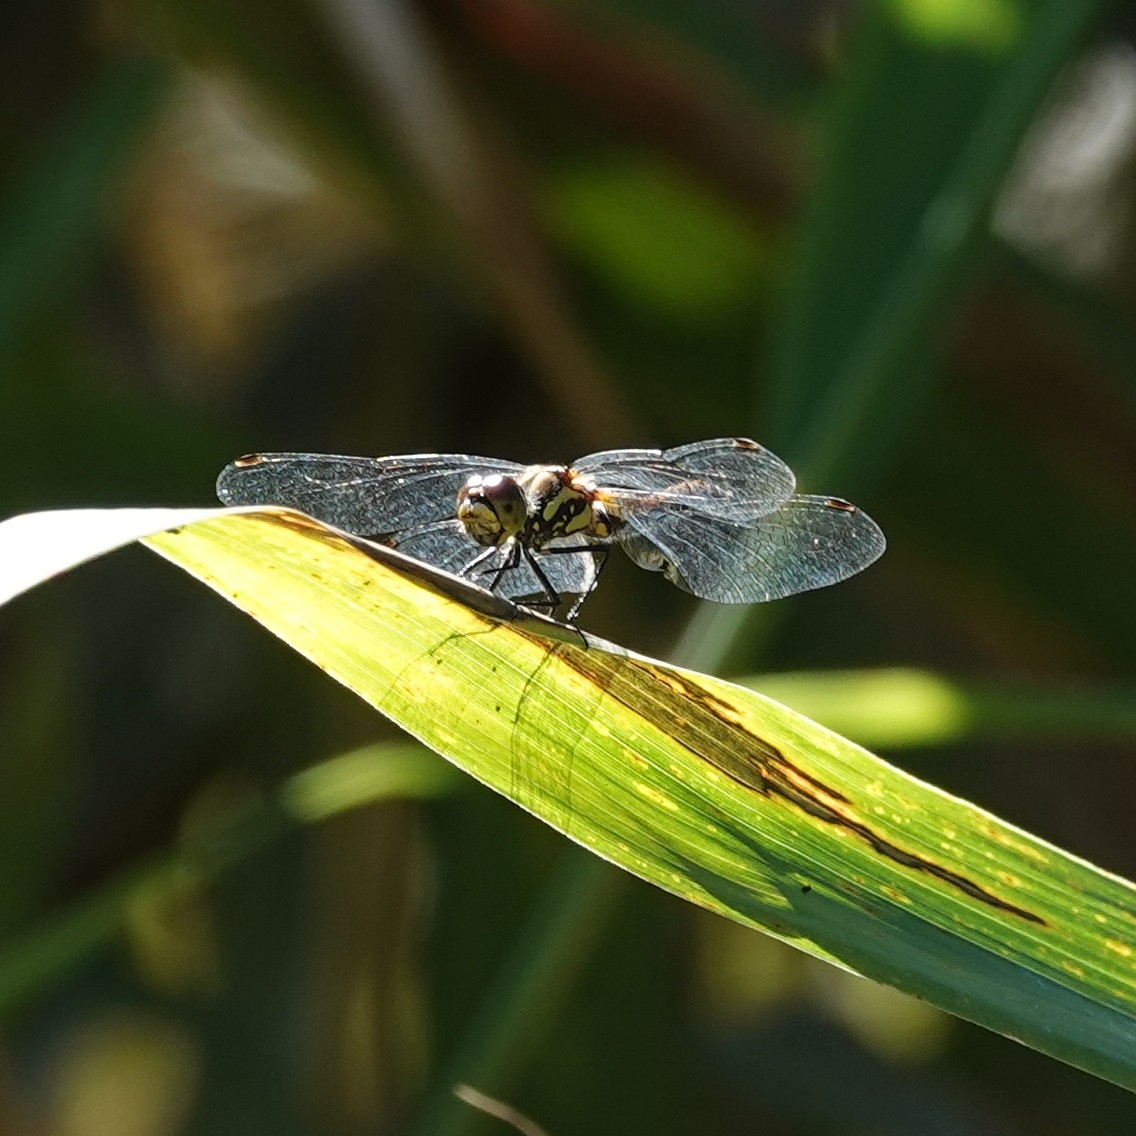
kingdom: Animalia
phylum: Arthropoda
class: Insecta
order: Odonata
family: Libellulidae
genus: Sympetrum
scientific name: Sympetrum danae
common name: Black darter
